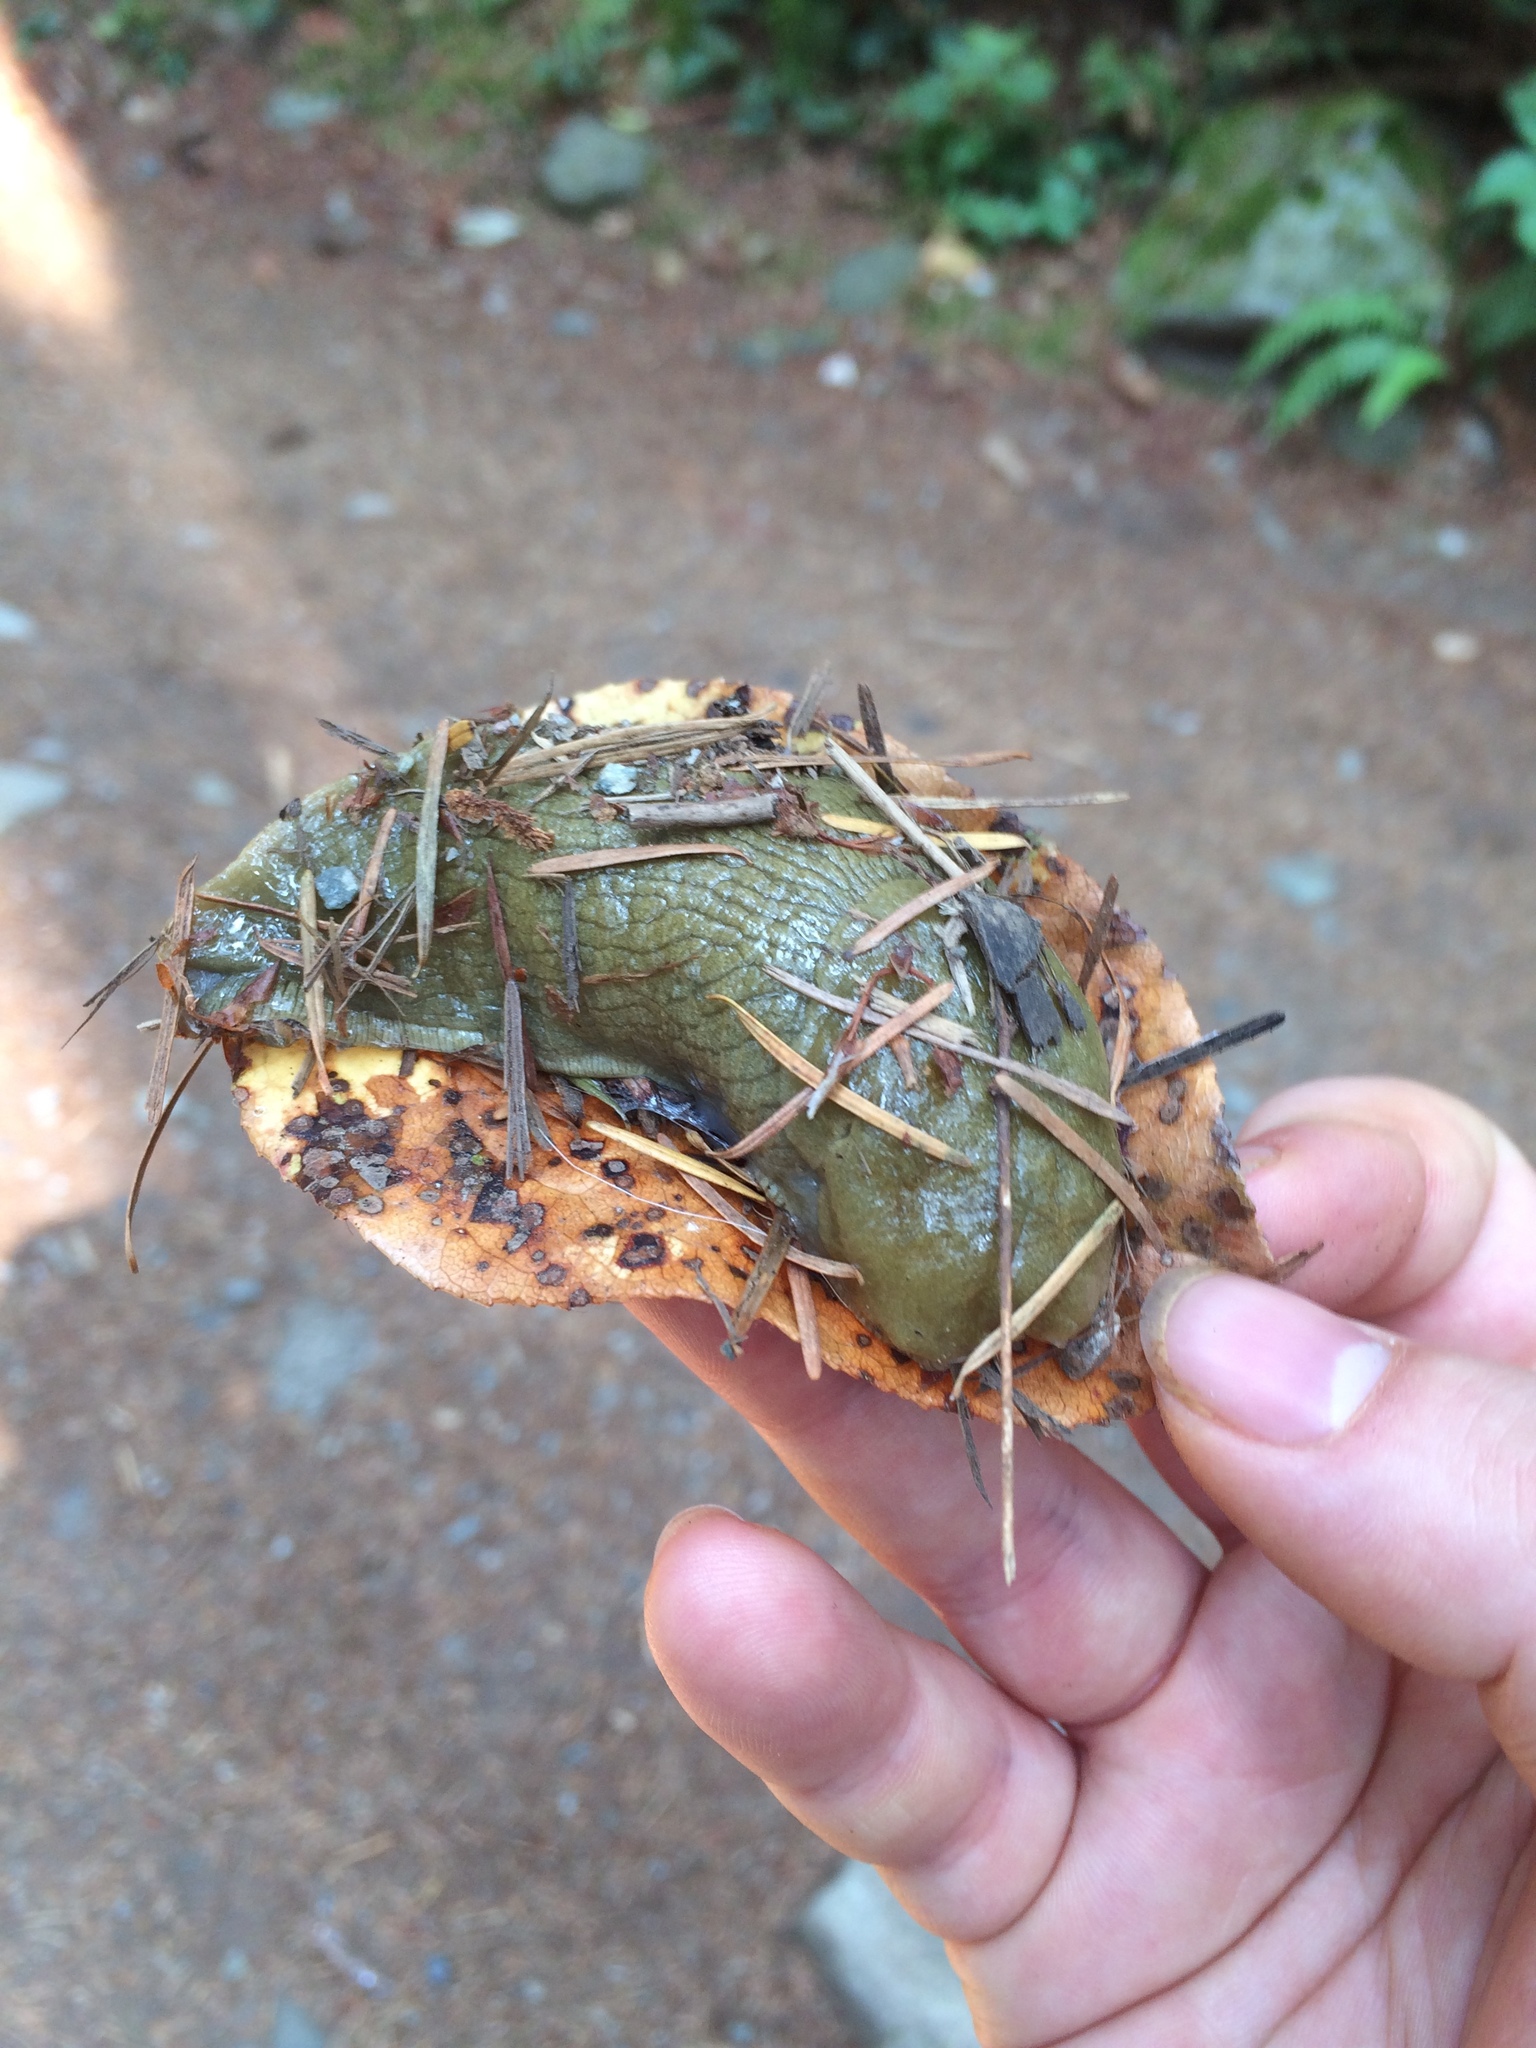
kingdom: Animalia
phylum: Mollusca
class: Gastropoda
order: Stylommatophora
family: Ariolimacidae
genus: Ariolimax
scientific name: Ariolimax columbianus
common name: Pacific banana slug
